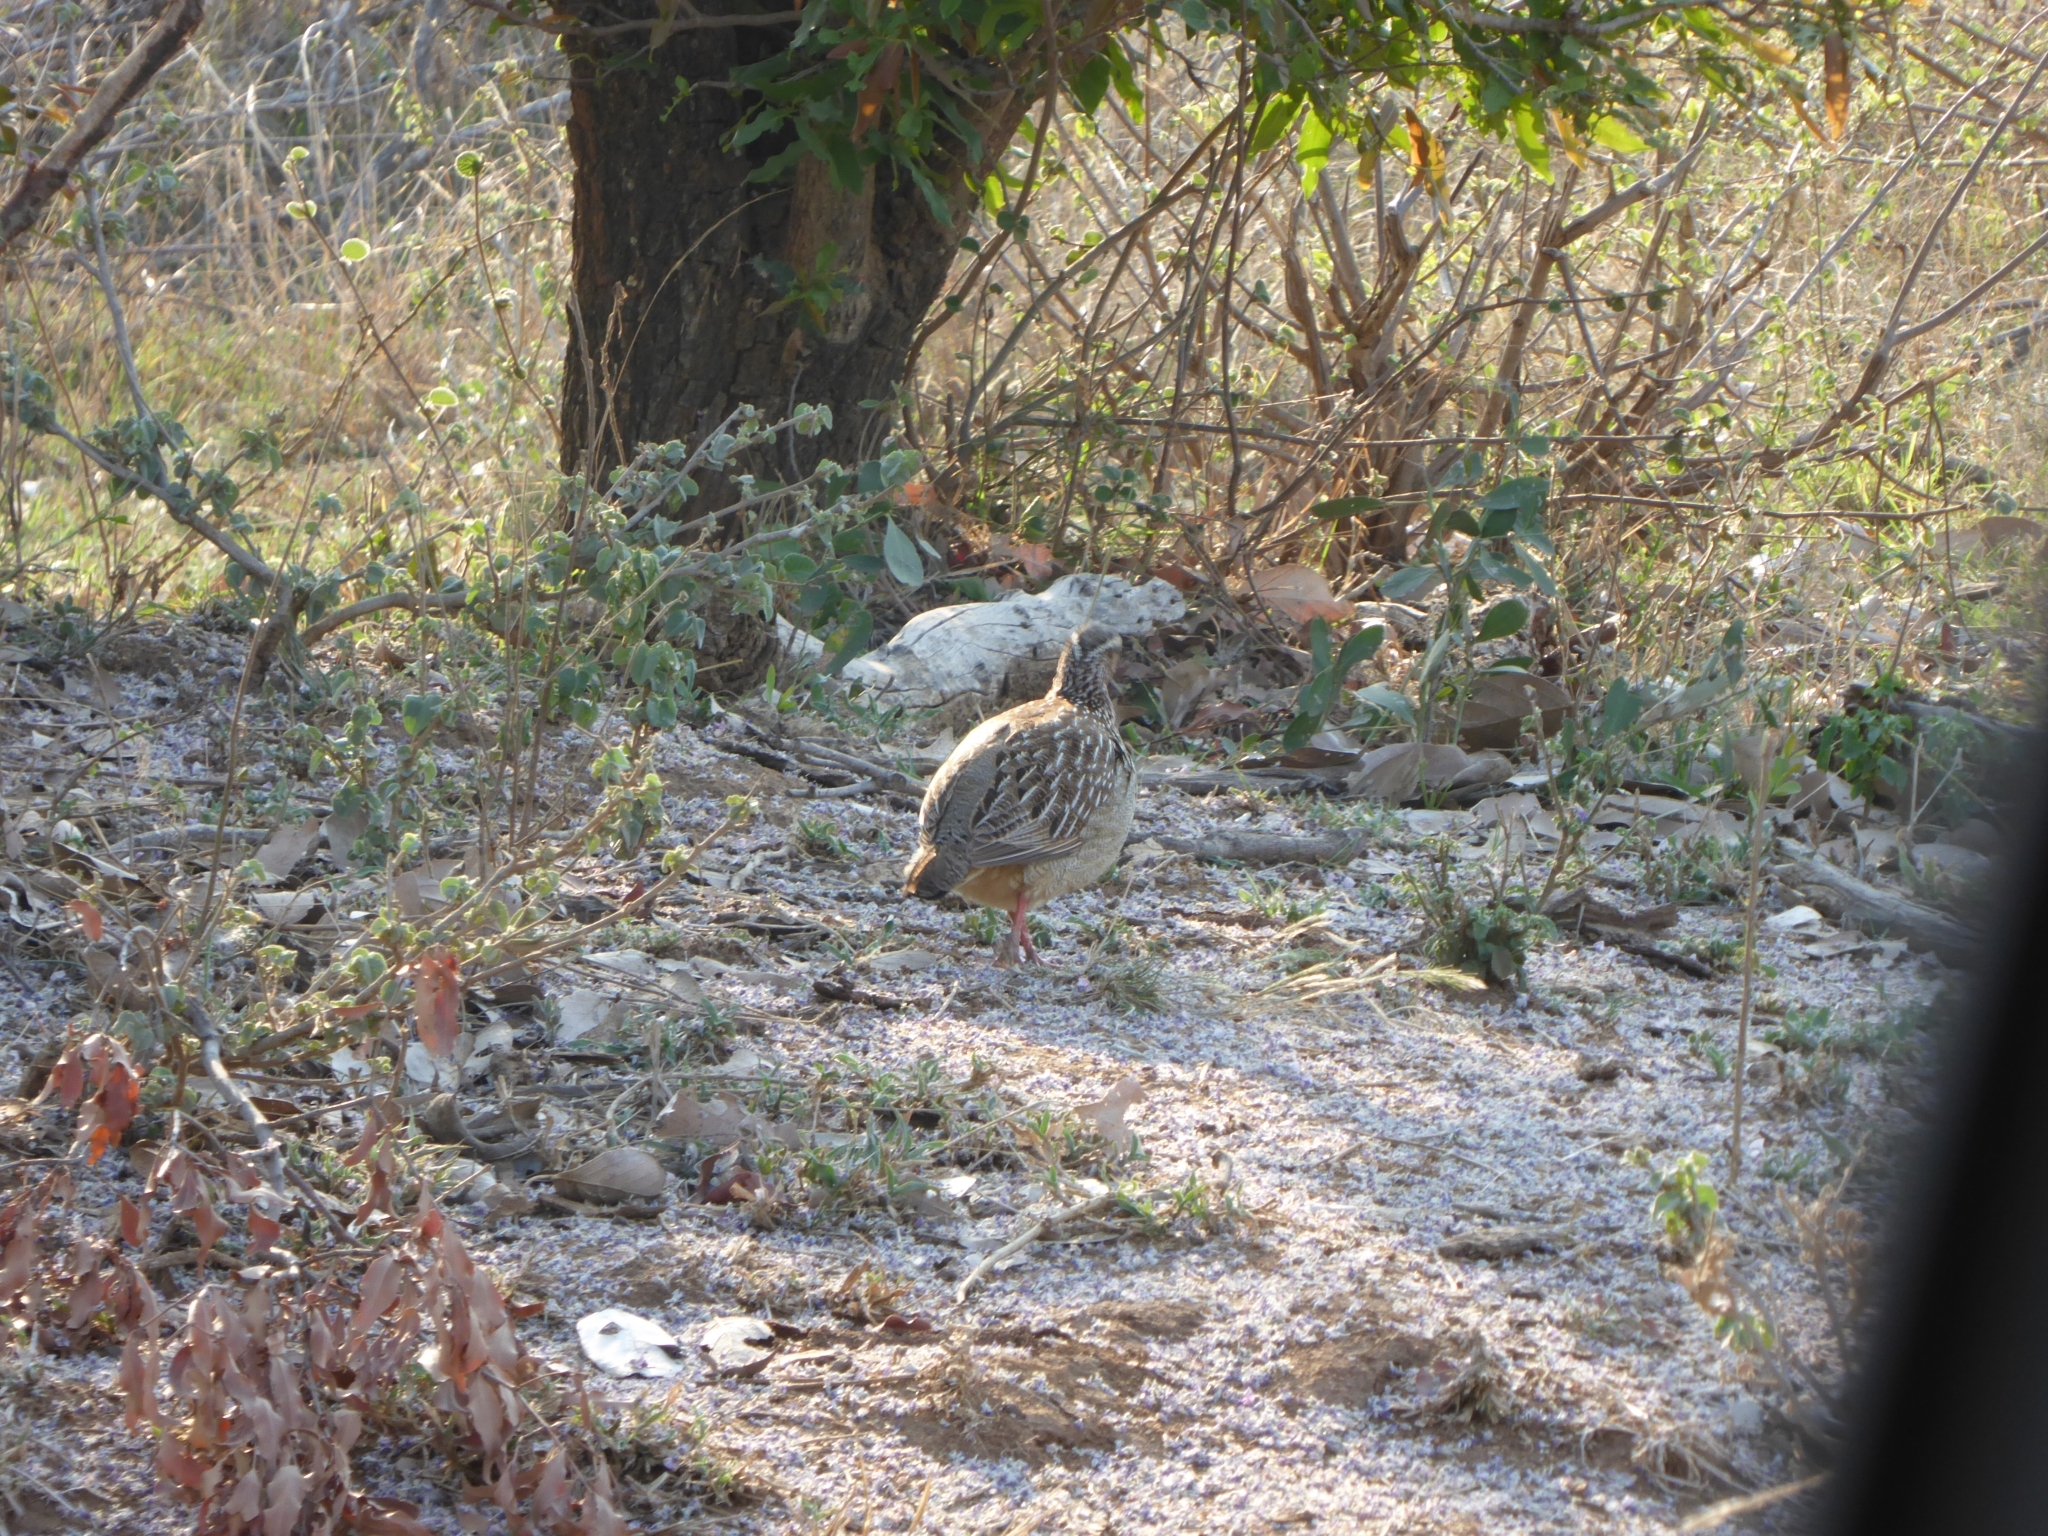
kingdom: Animalia
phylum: Chordata
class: Aves
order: Galliformes
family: Phasianidae
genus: Ortygornis
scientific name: Ortygornis sephaena
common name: Crested francolin
